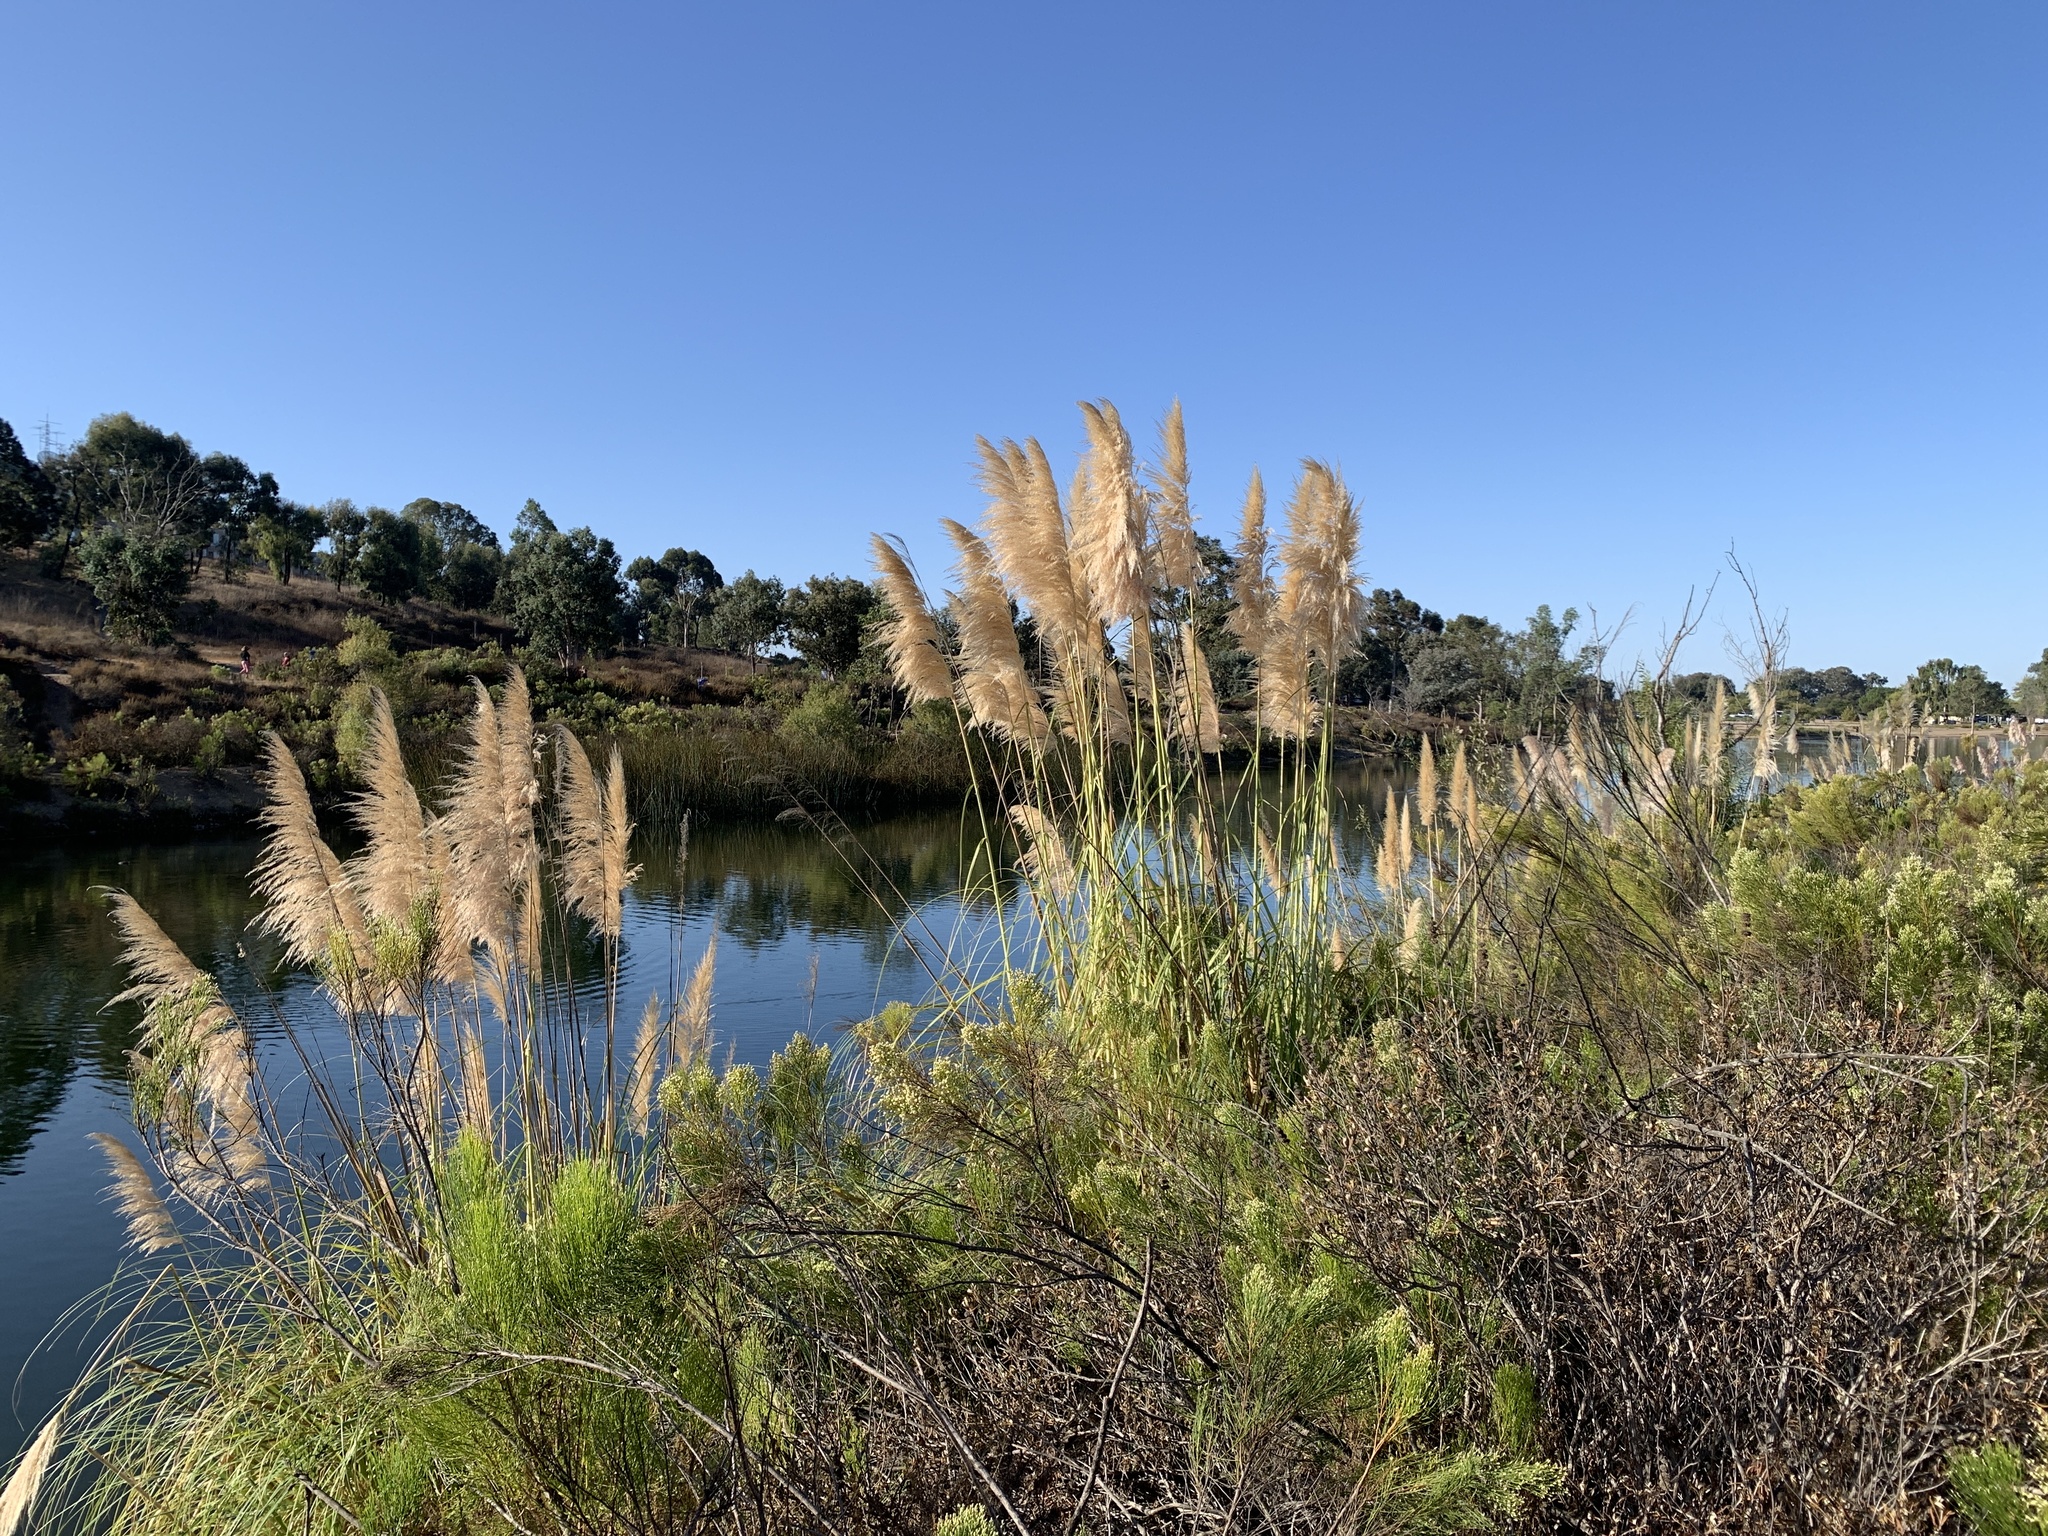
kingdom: Plantae
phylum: Tracheophyta
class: Liliopsida
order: Poales
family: Poaceae
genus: Cortaderia
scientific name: Cortaderia selloana
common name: Uruguayan pampas grass
